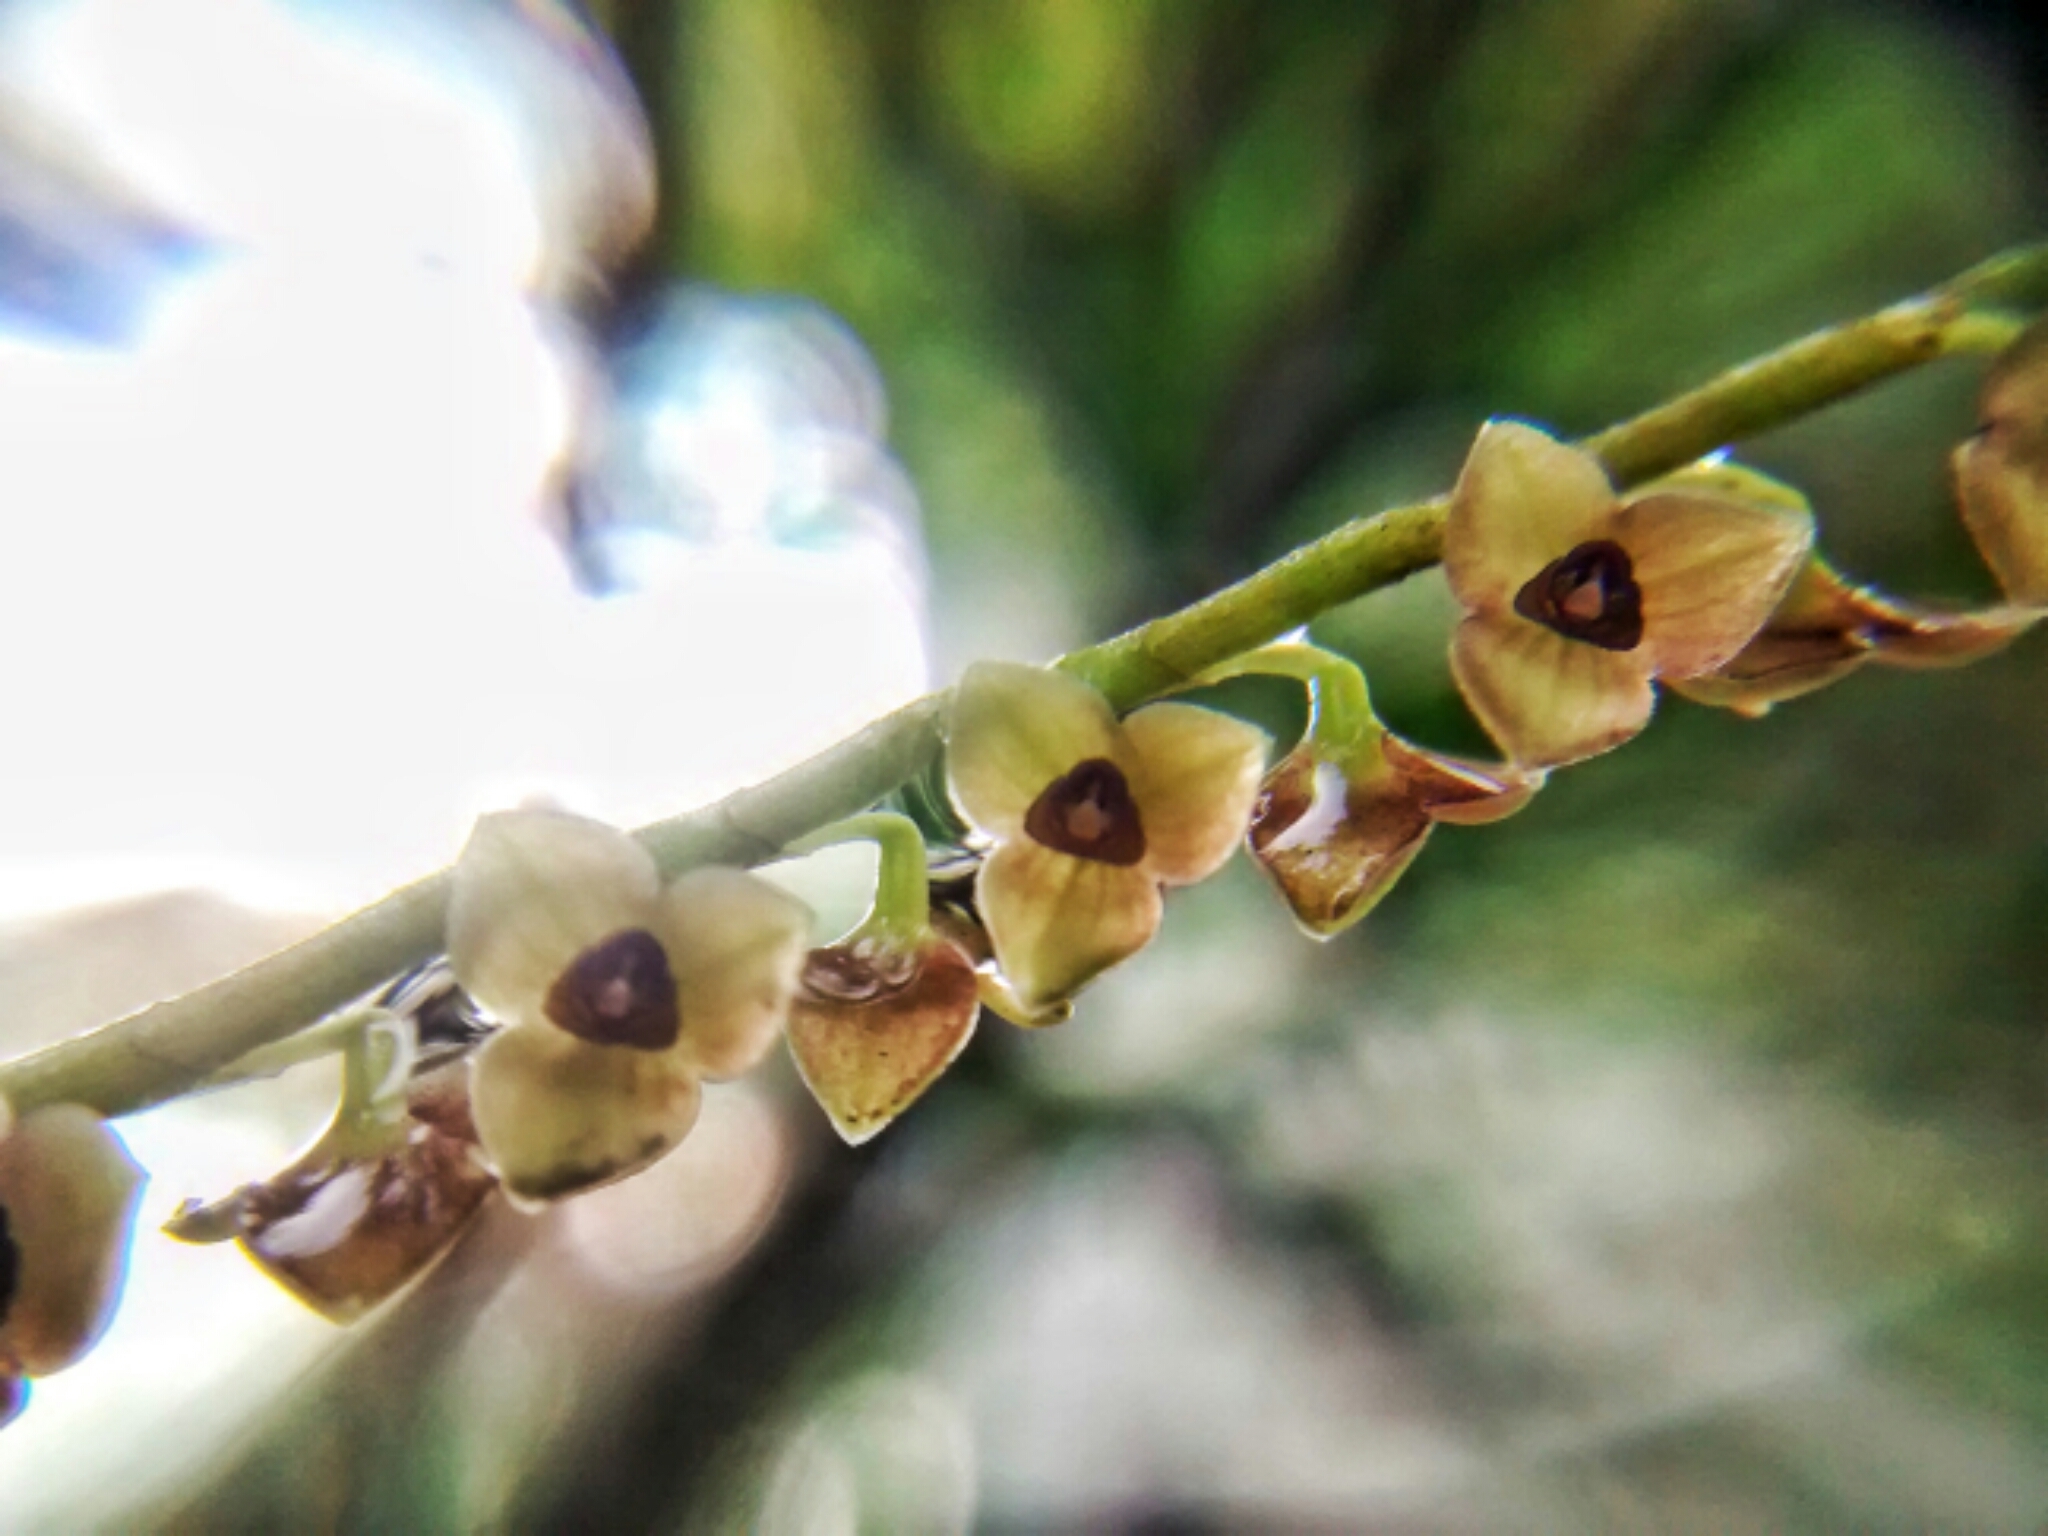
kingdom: Plantae
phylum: Tracheophyta
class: Liliopsida
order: Asparagales
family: Orchidaceae
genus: Stelis
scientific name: Stelis purpurascens
